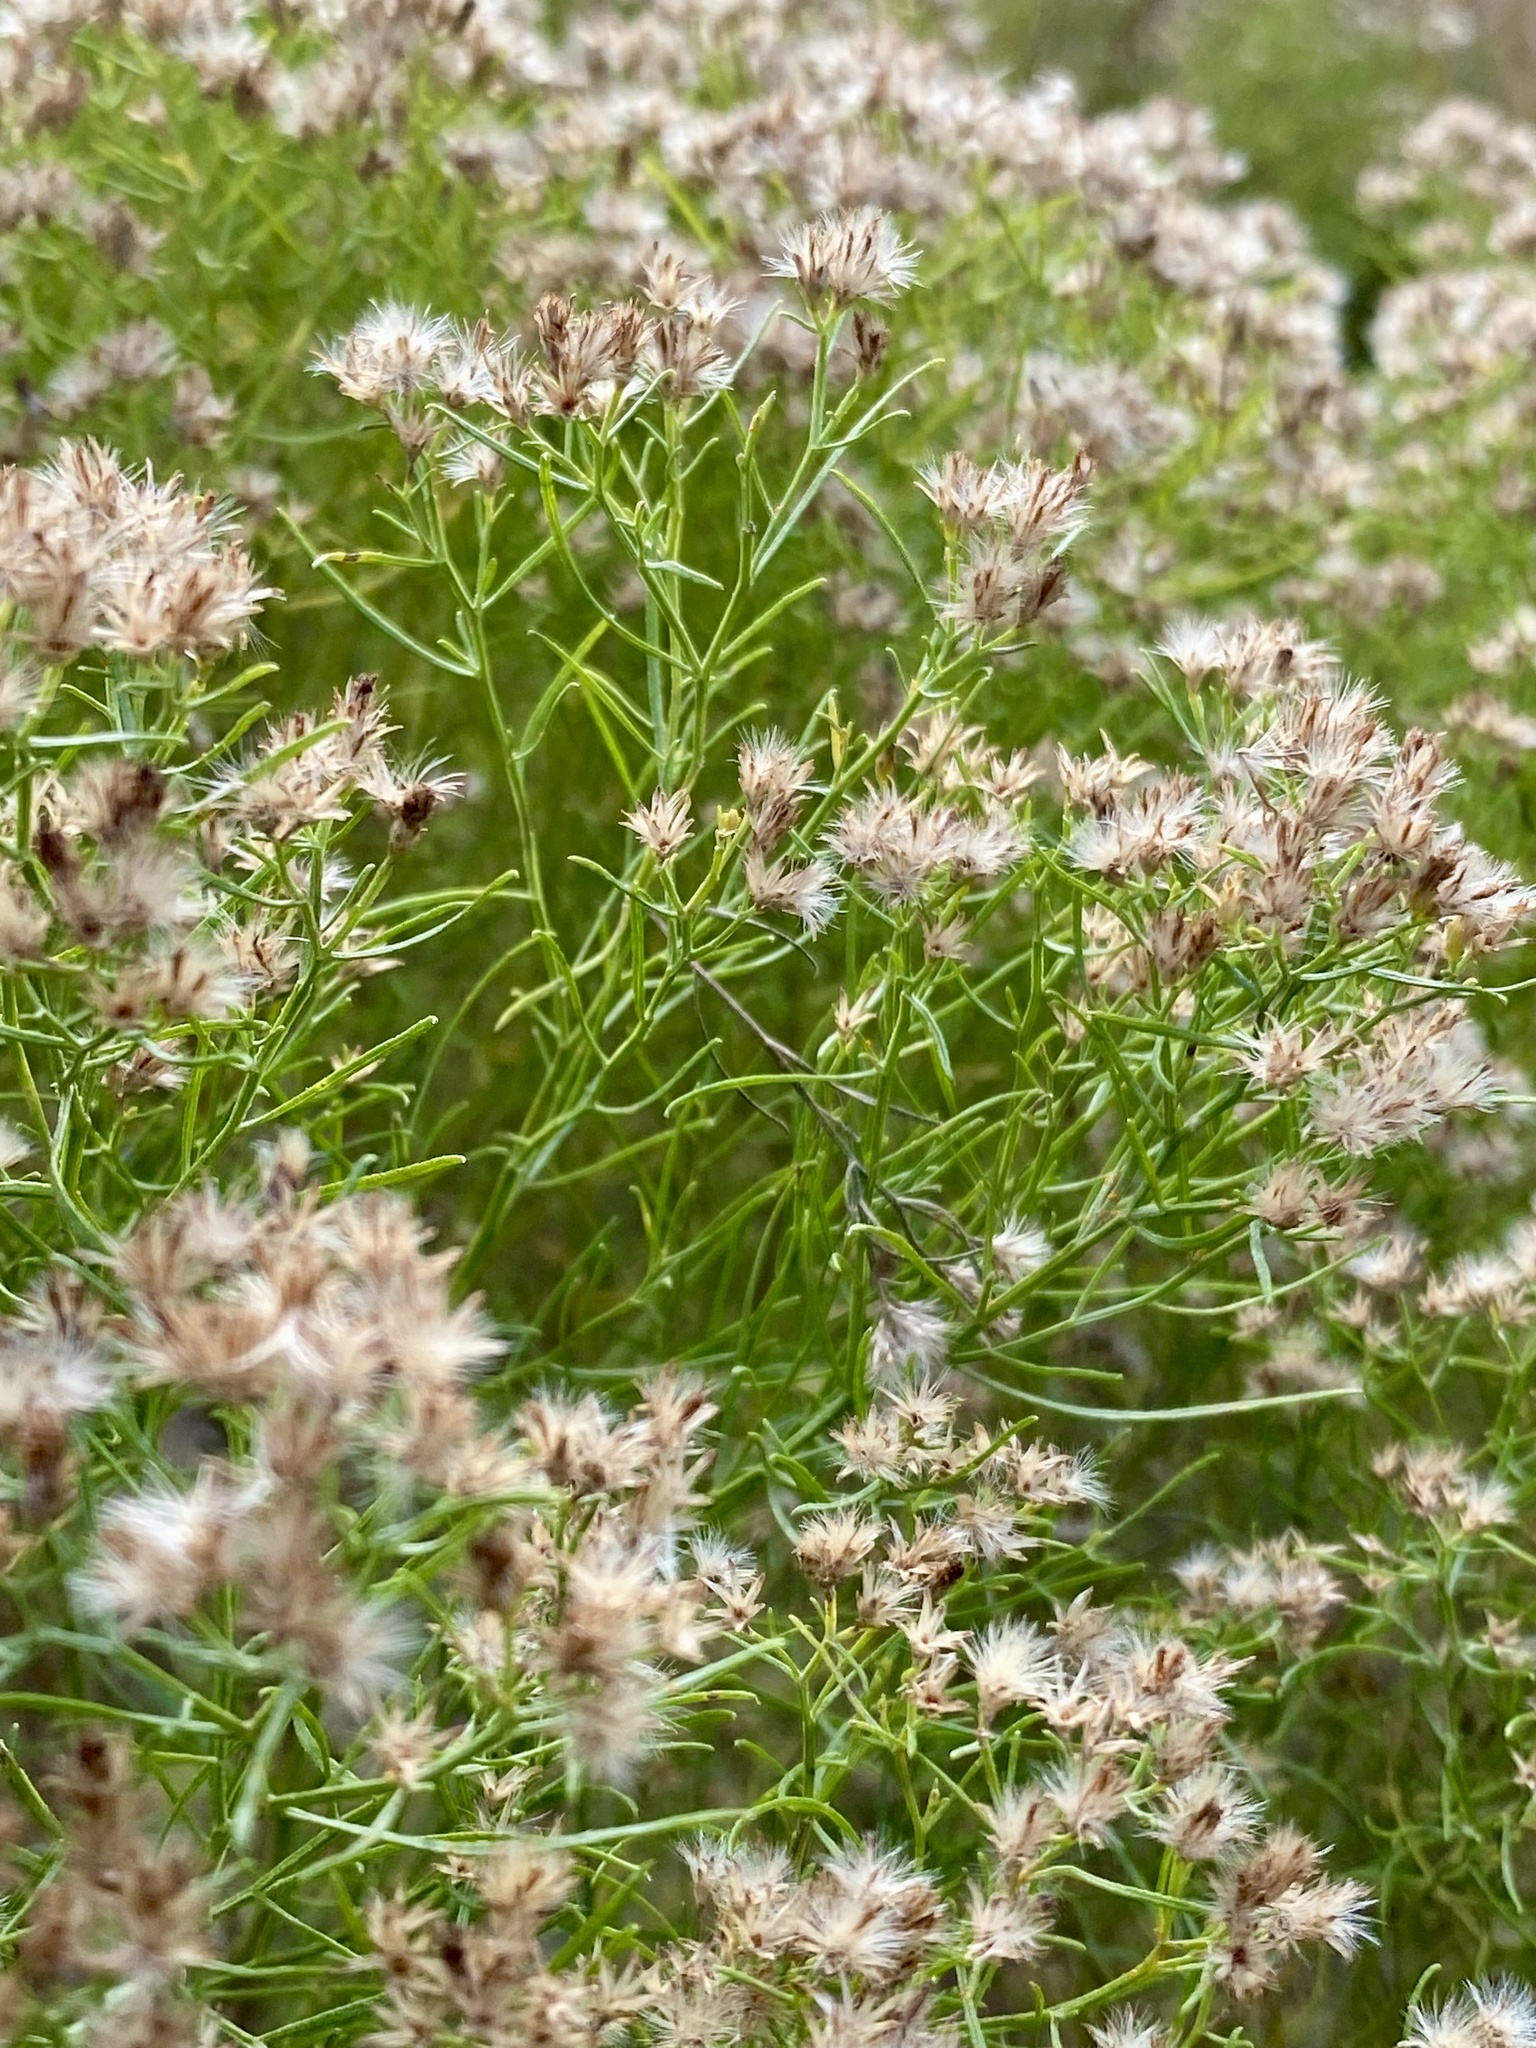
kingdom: Plantae
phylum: Tracheophyta
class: Magnoliopsida
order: Asterales
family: Asteraceae
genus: Euthamia
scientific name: Euthamia caroliniana
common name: Coastal plain goldentop
